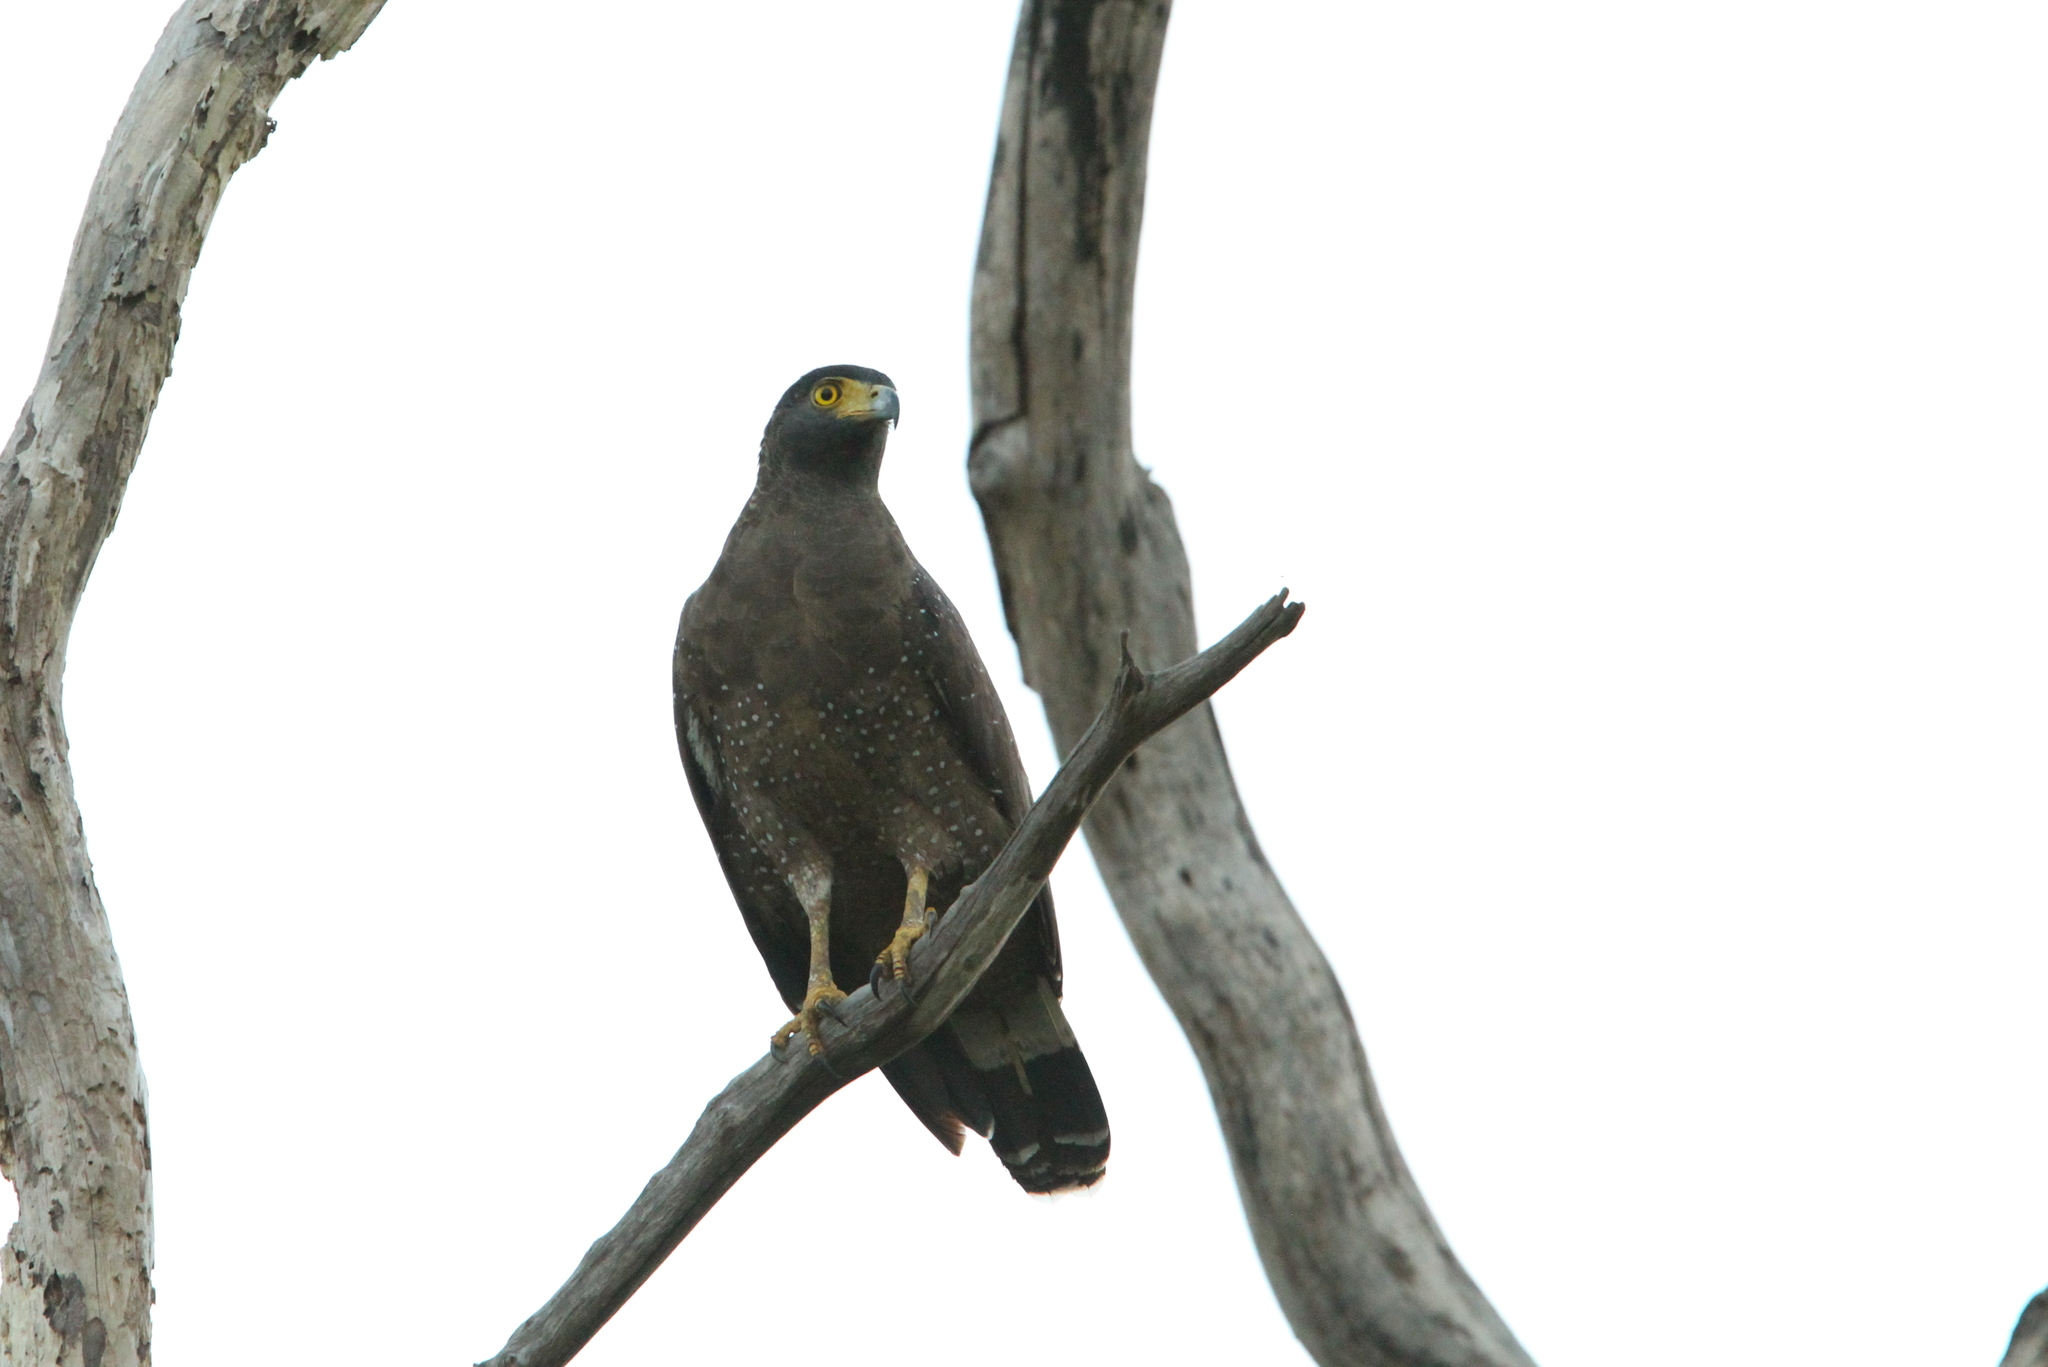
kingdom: Animalia
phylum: Chordata
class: Aves
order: Accipitriformes
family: Accipitridae
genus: Spilornis
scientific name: Spilornis cheela
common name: Crested serpent eagle
